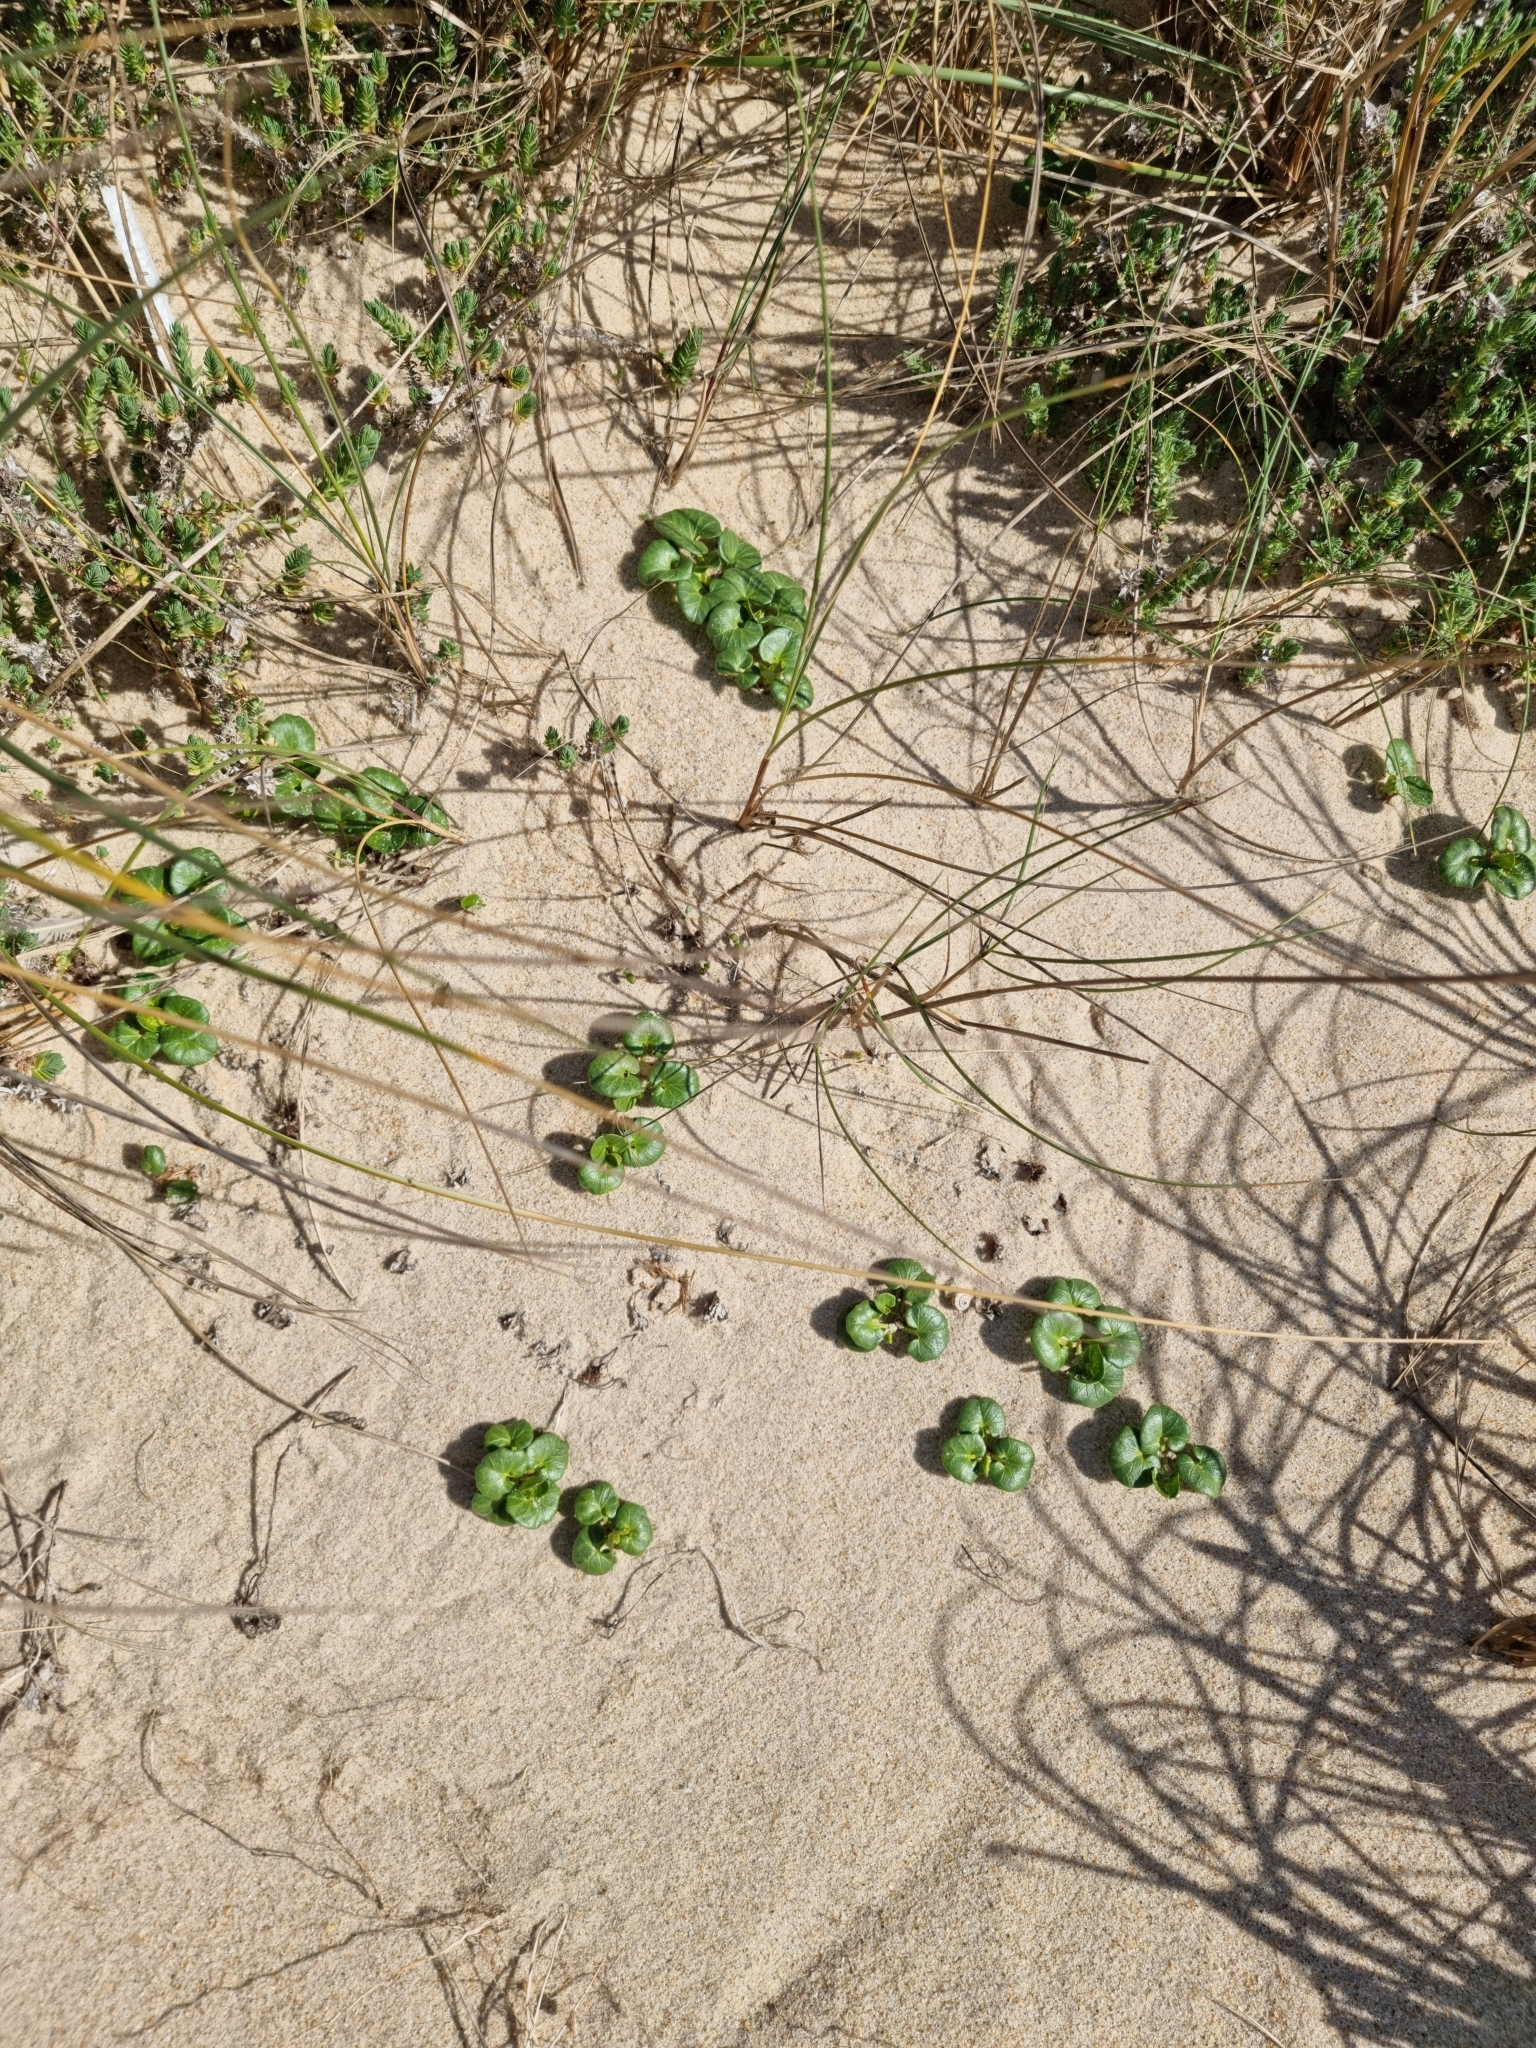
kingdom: Plantae
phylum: Tracheophyta
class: Magnoliopsida
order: Solanales
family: Convolvulaceae
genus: Calystegia
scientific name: Calystegia soldanella
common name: Sea bindweed
